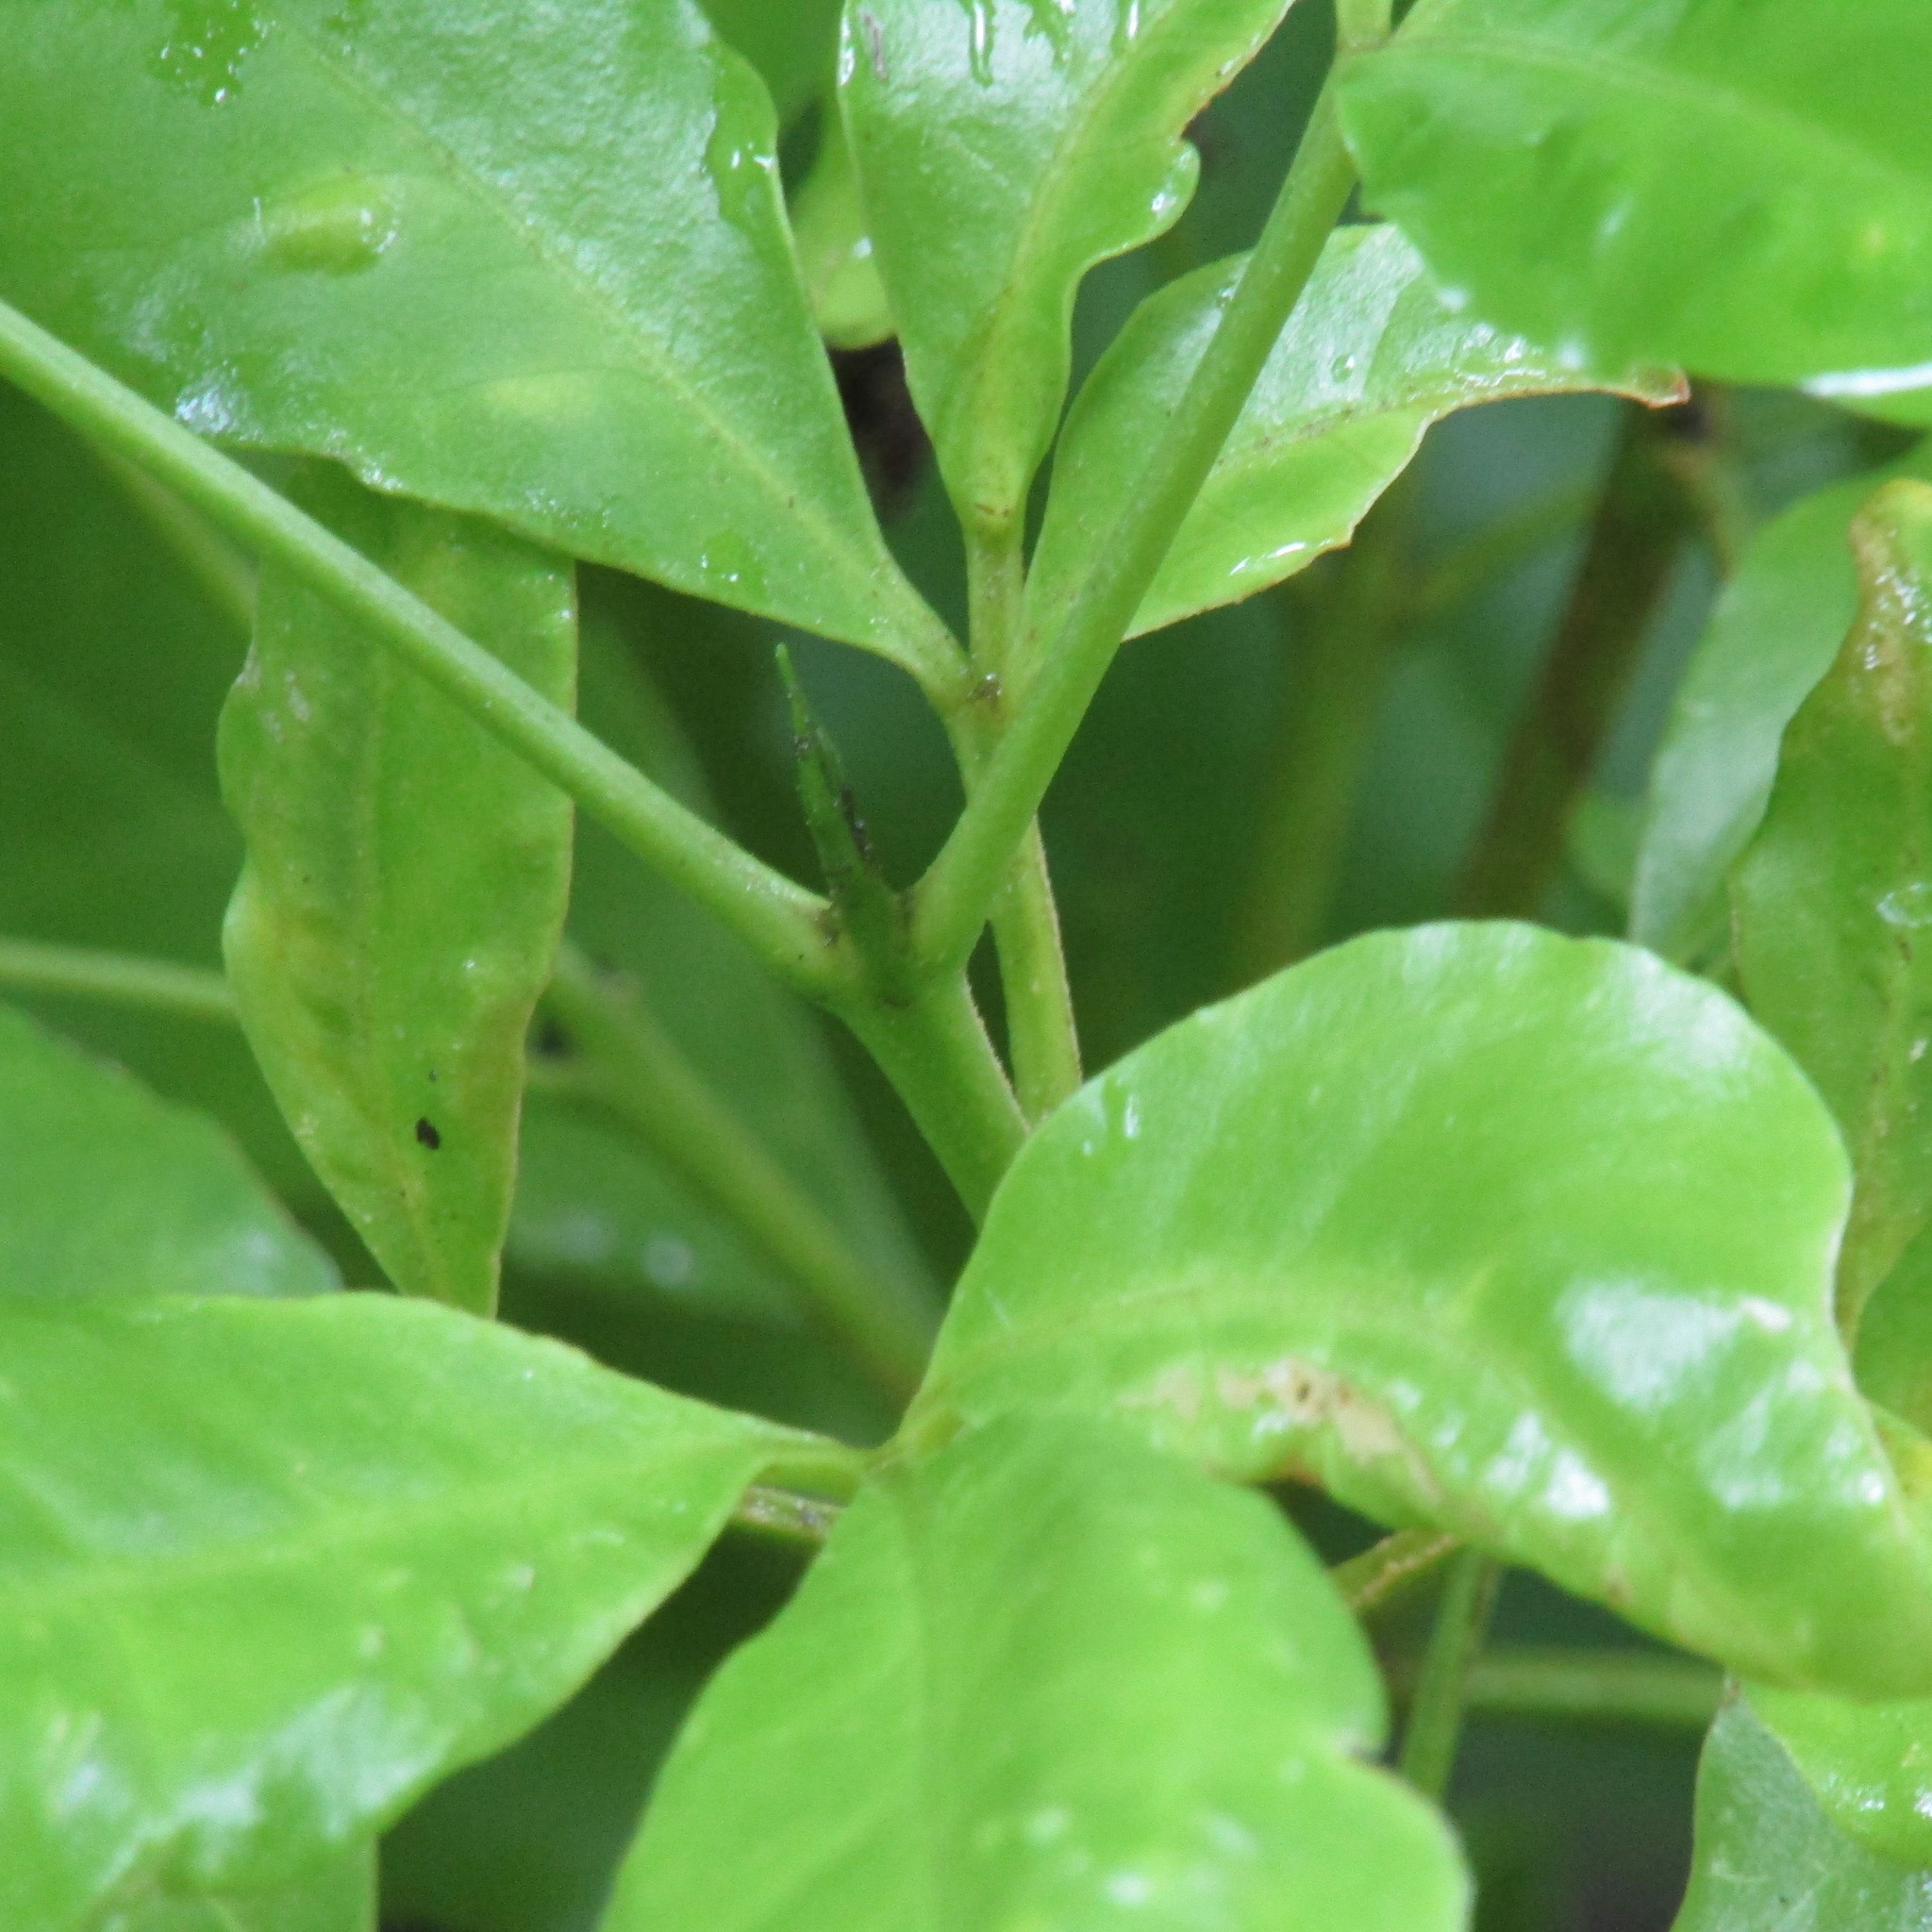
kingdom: Plantae
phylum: Tracheophyta
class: Magnoliopsida
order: Sapindales
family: Rutaceae
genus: Melicope
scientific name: Melicope ternata
